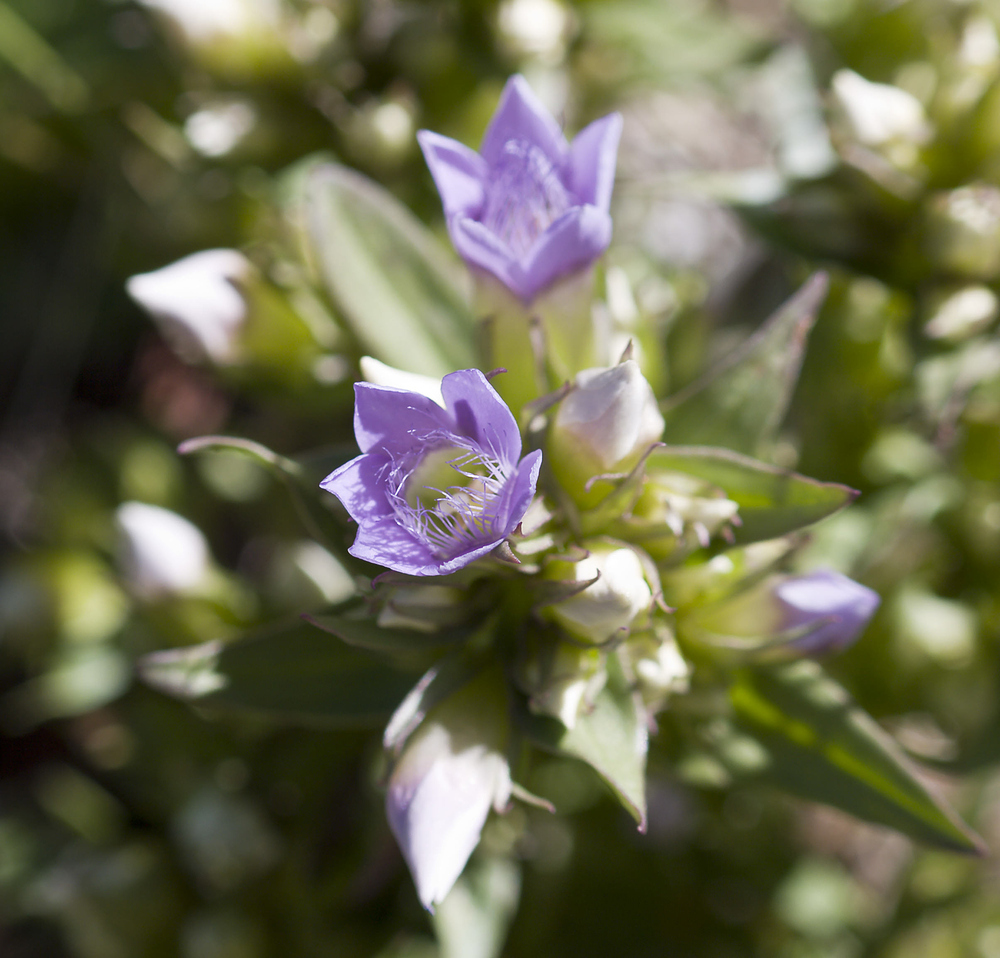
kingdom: Plantae
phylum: Tracheophyta
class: Magnoliopsida
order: Gentianales
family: Gentianaceae
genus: Gentianella
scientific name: Gentianella ramosa
